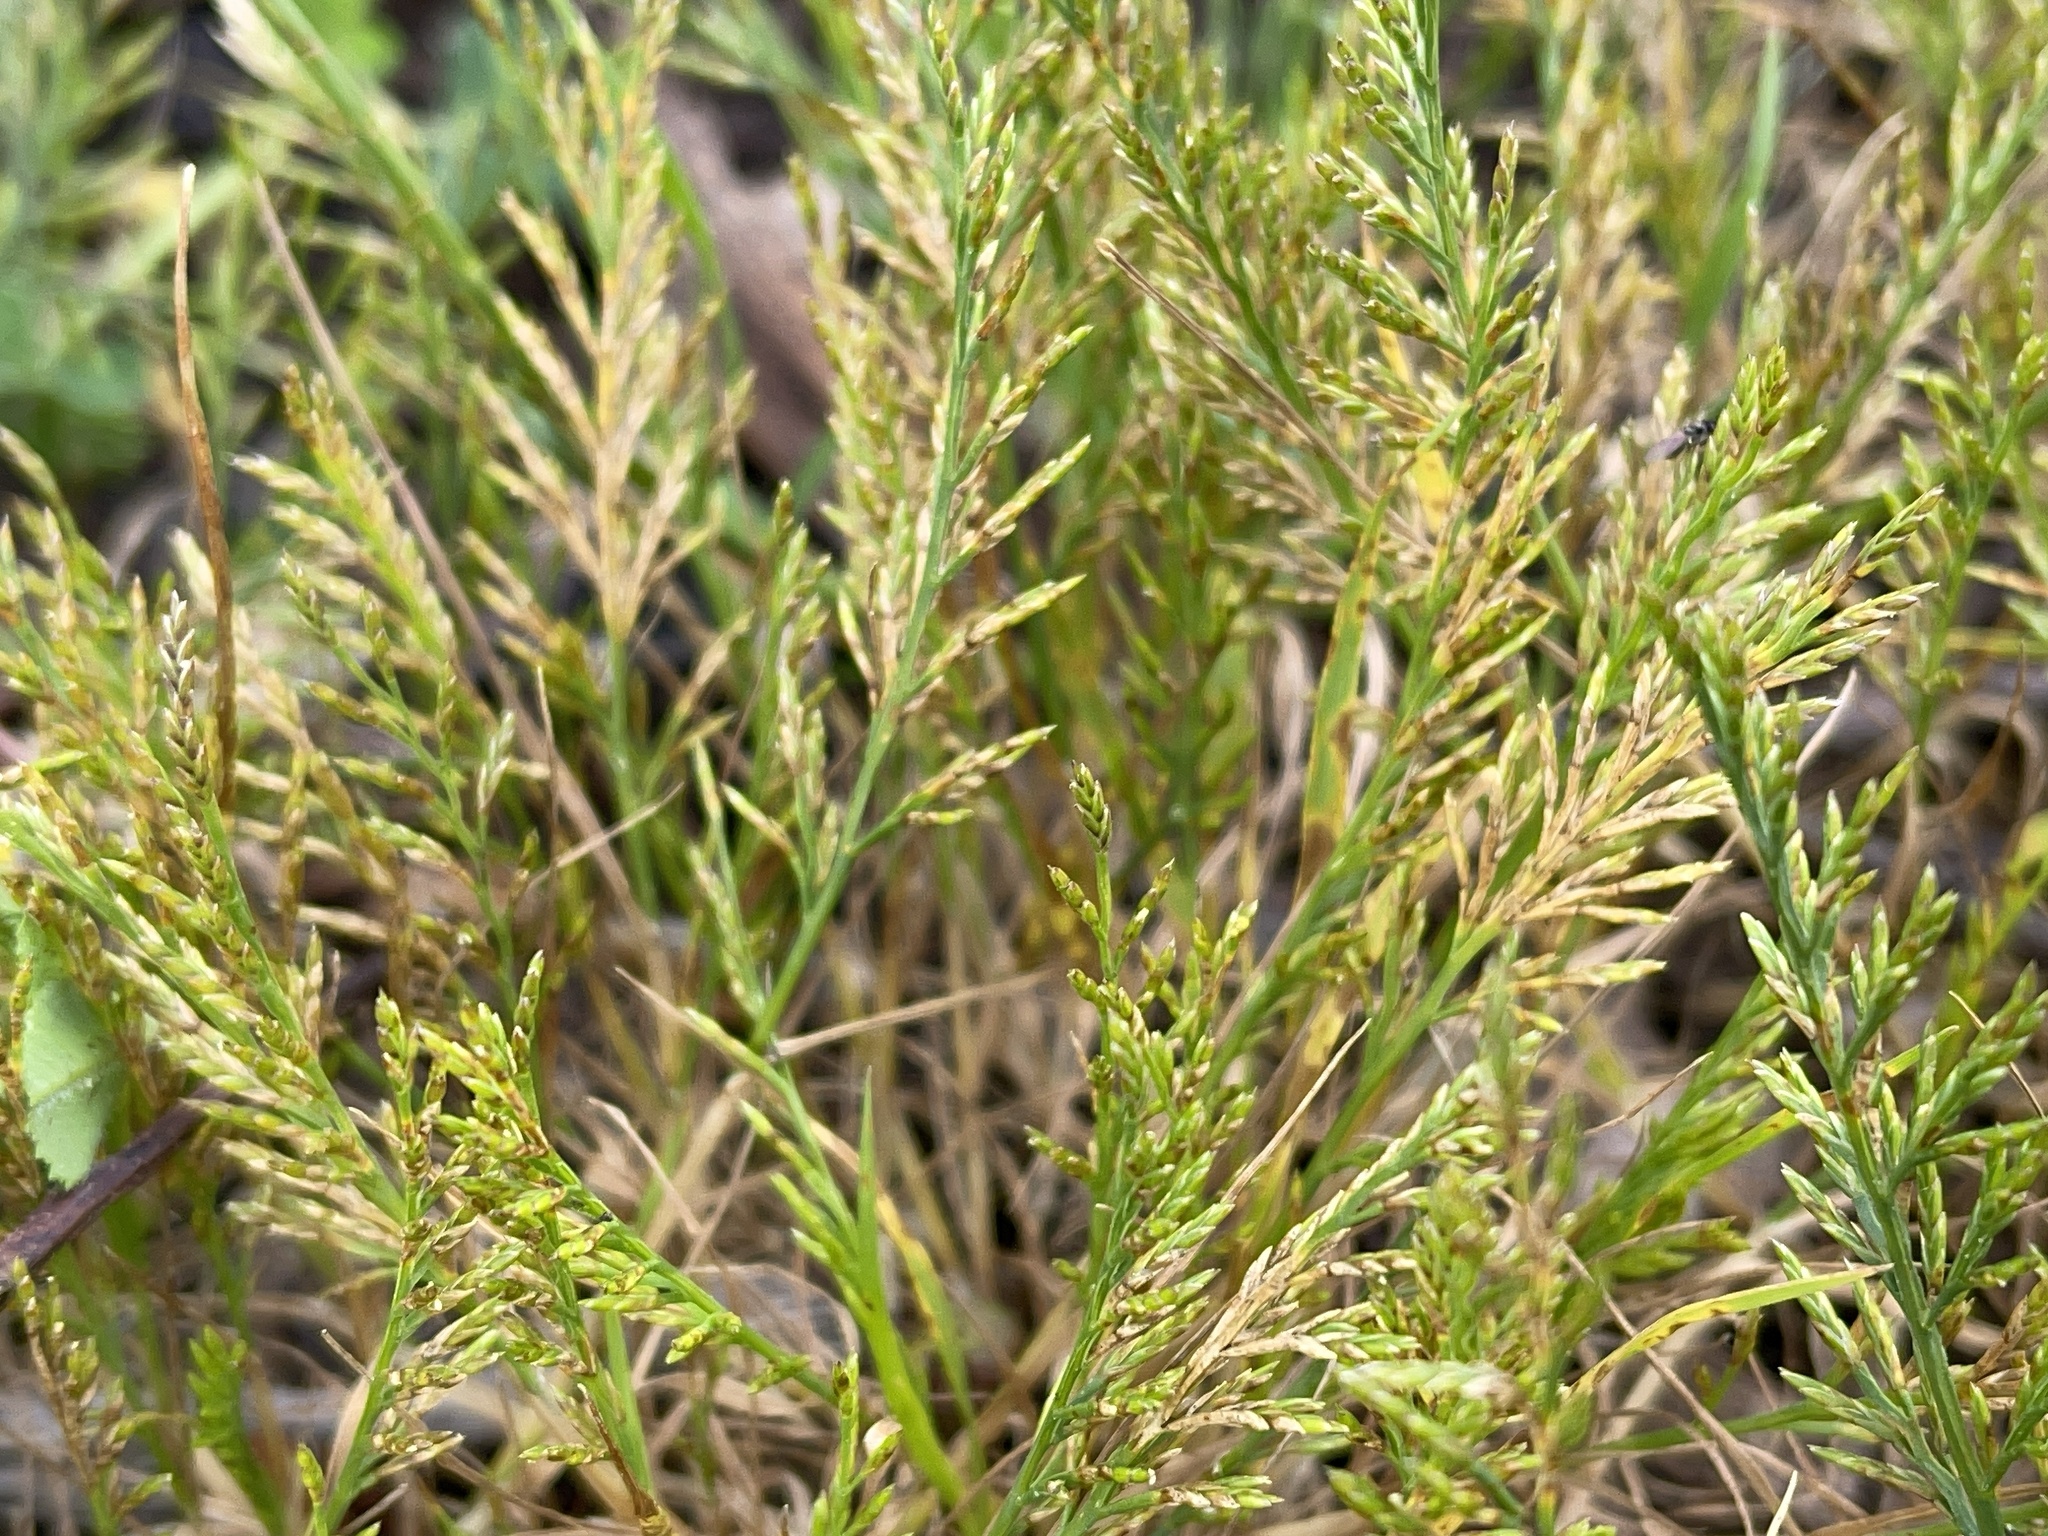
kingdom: Plantae
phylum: Tracheophyta
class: Liliopsida
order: Poales
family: Poaceae
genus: Catapodium
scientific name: Catapodium rigidum
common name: Fern-grass
